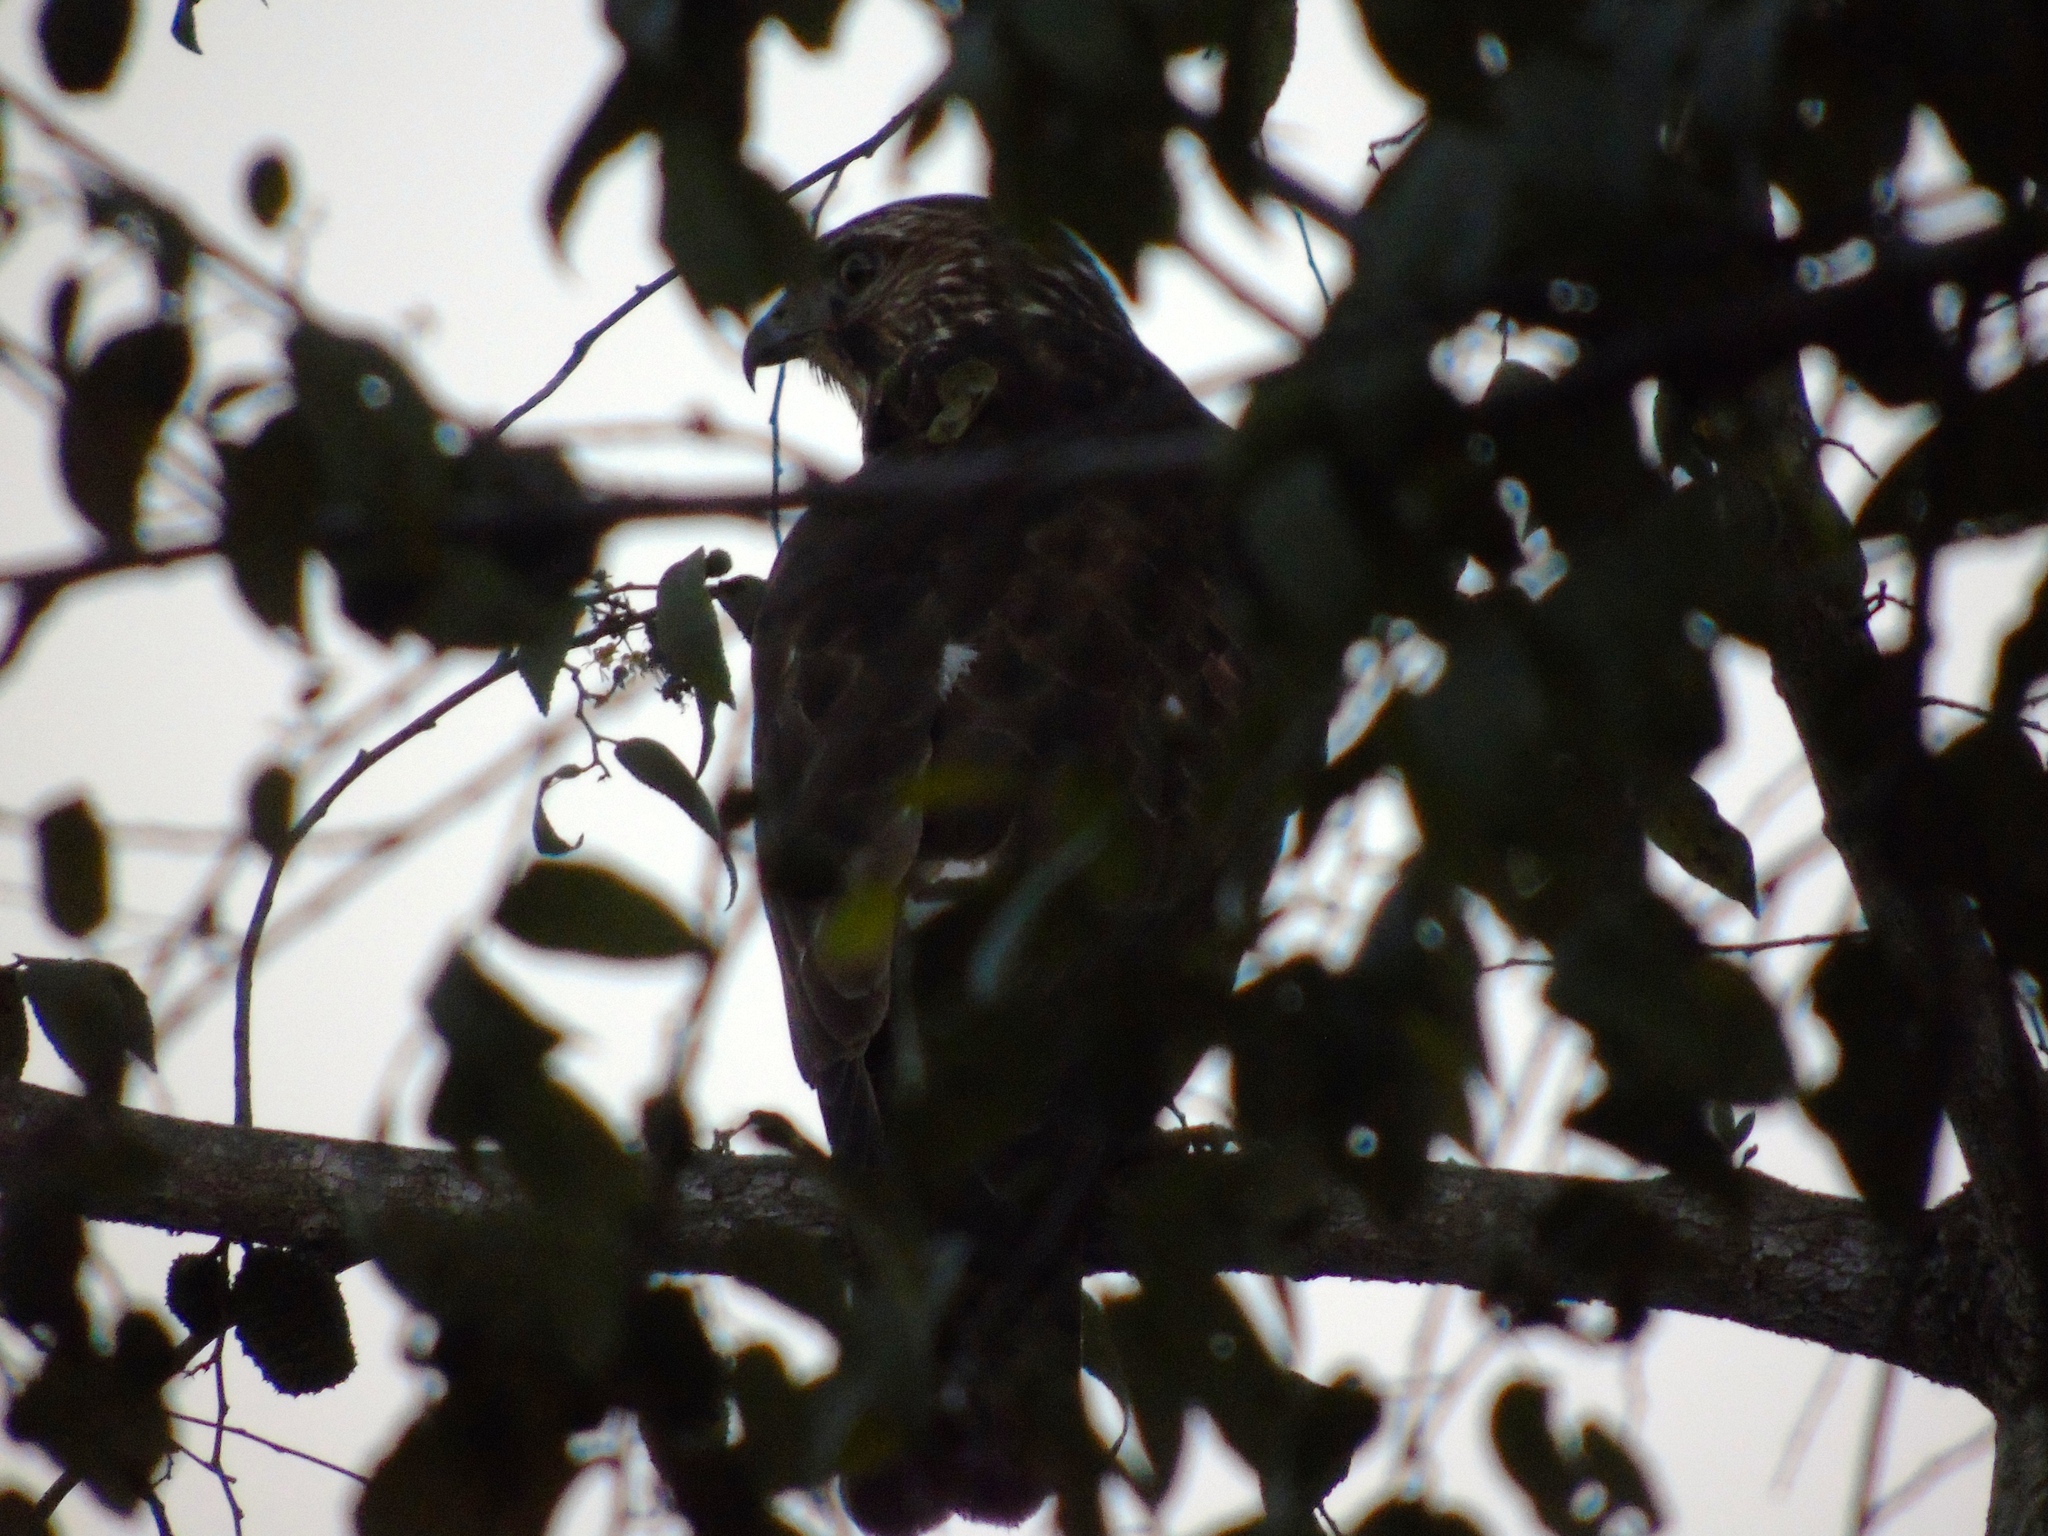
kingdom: Animalia
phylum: Chordata
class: Aves
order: Accipitriformes
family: Accipitridae
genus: Buteo
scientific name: Buteo jamaicensis
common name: Red-tailed hawk
